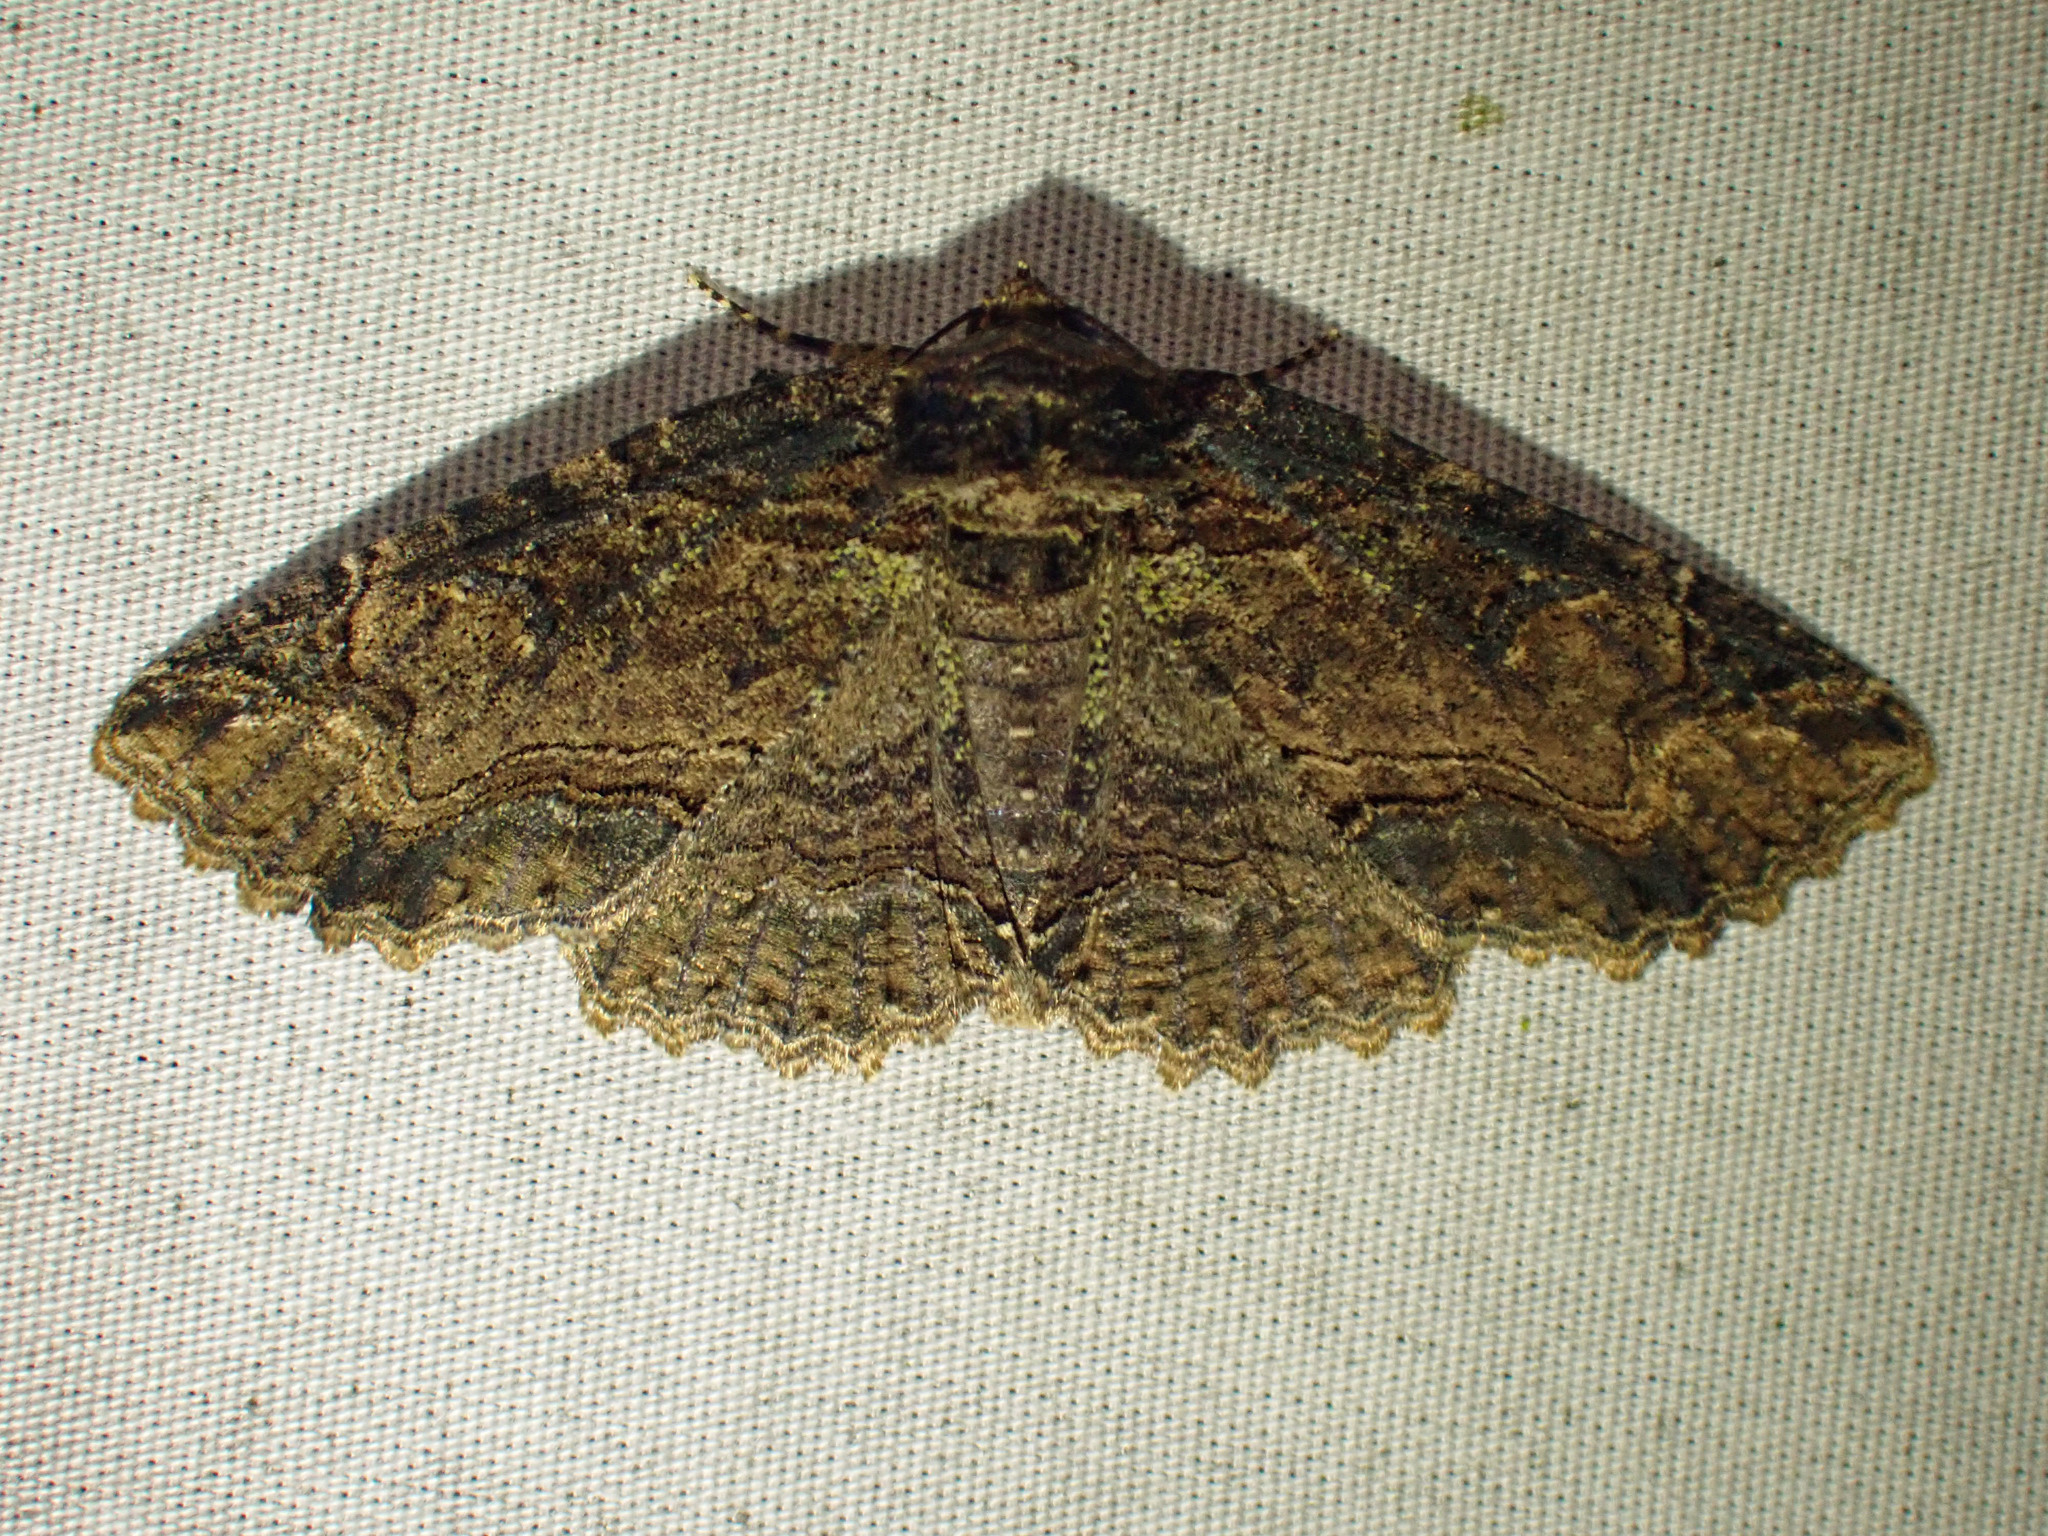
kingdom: Animalia
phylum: Arthropoda
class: Insecta
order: Lepidoptera
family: Erebidae
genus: Zale
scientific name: Zale minerea
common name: Colorful zale moth
